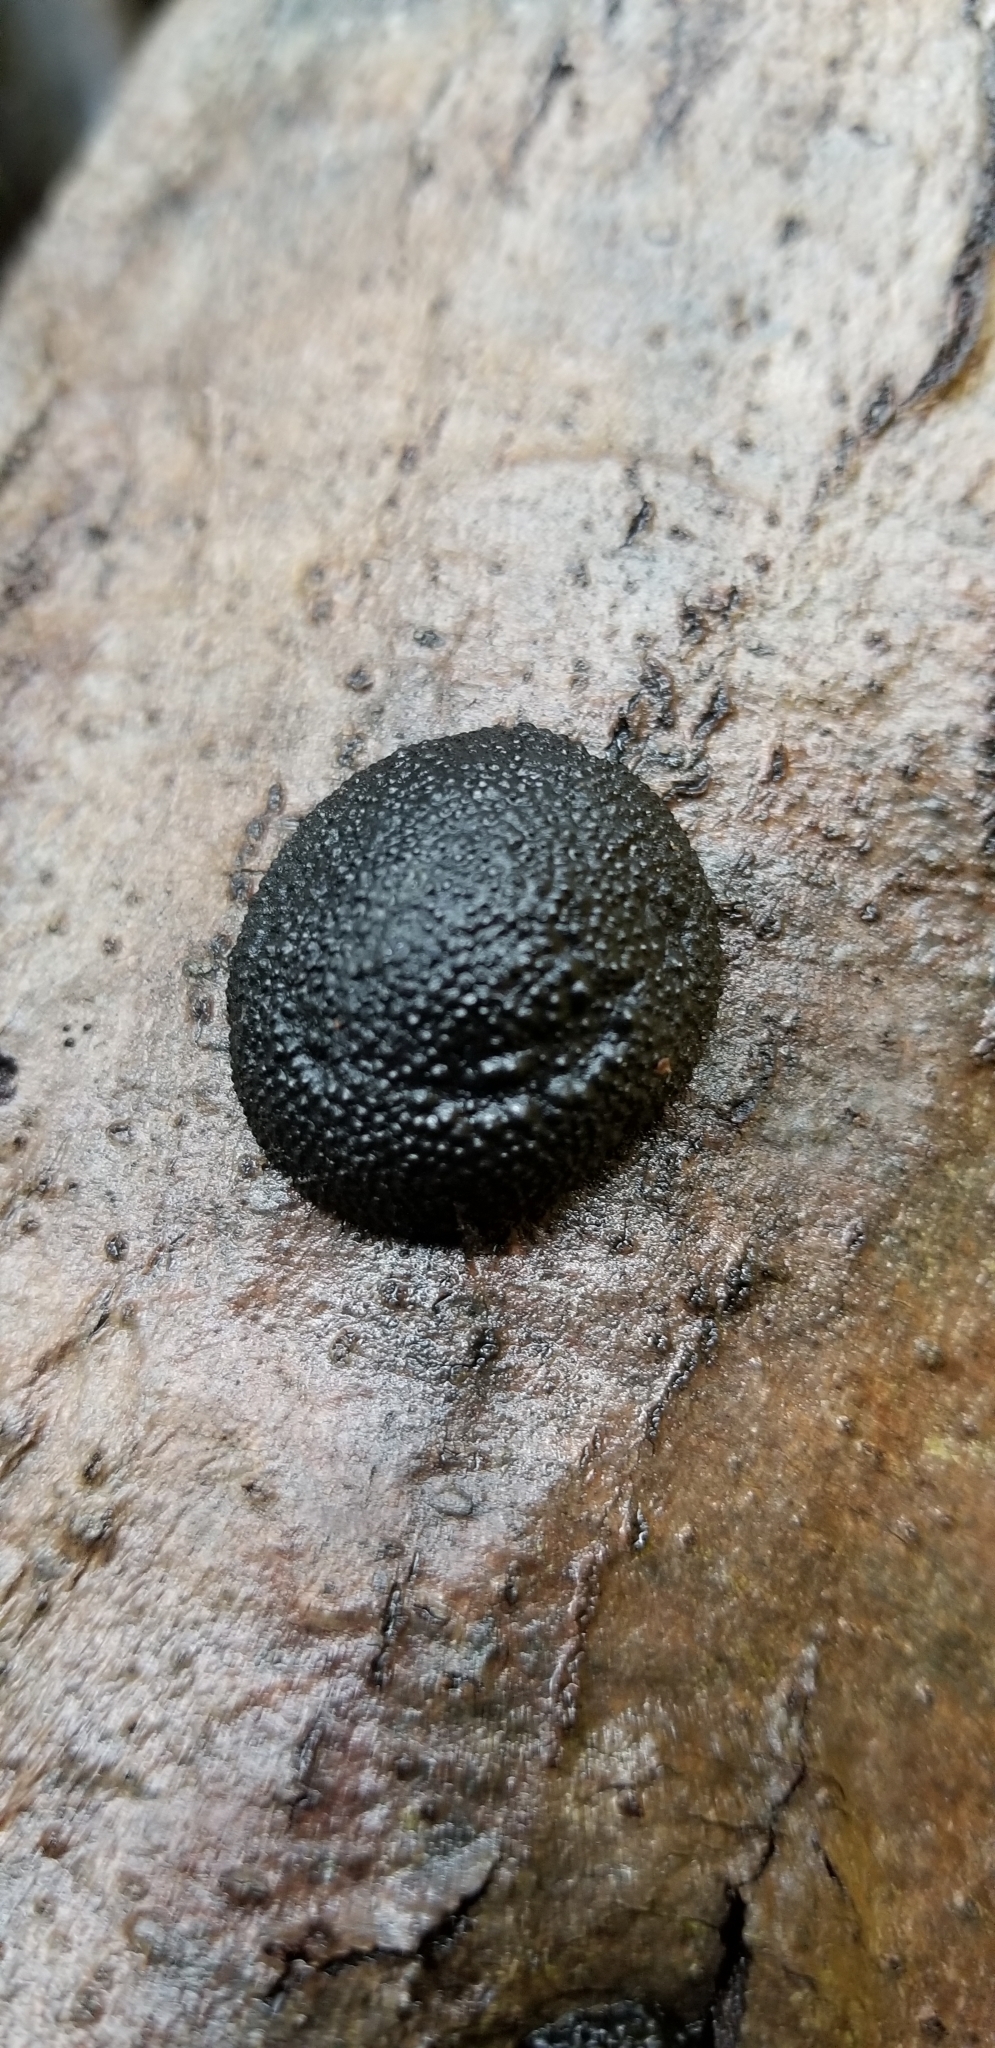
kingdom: Fungi
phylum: Ascomycota
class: Sordariomycetes
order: Xylariales
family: Hypoxylaceae
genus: Annulohypoxylon
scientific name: Annulohypoxylon thouarsianum
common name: Cramp balls
